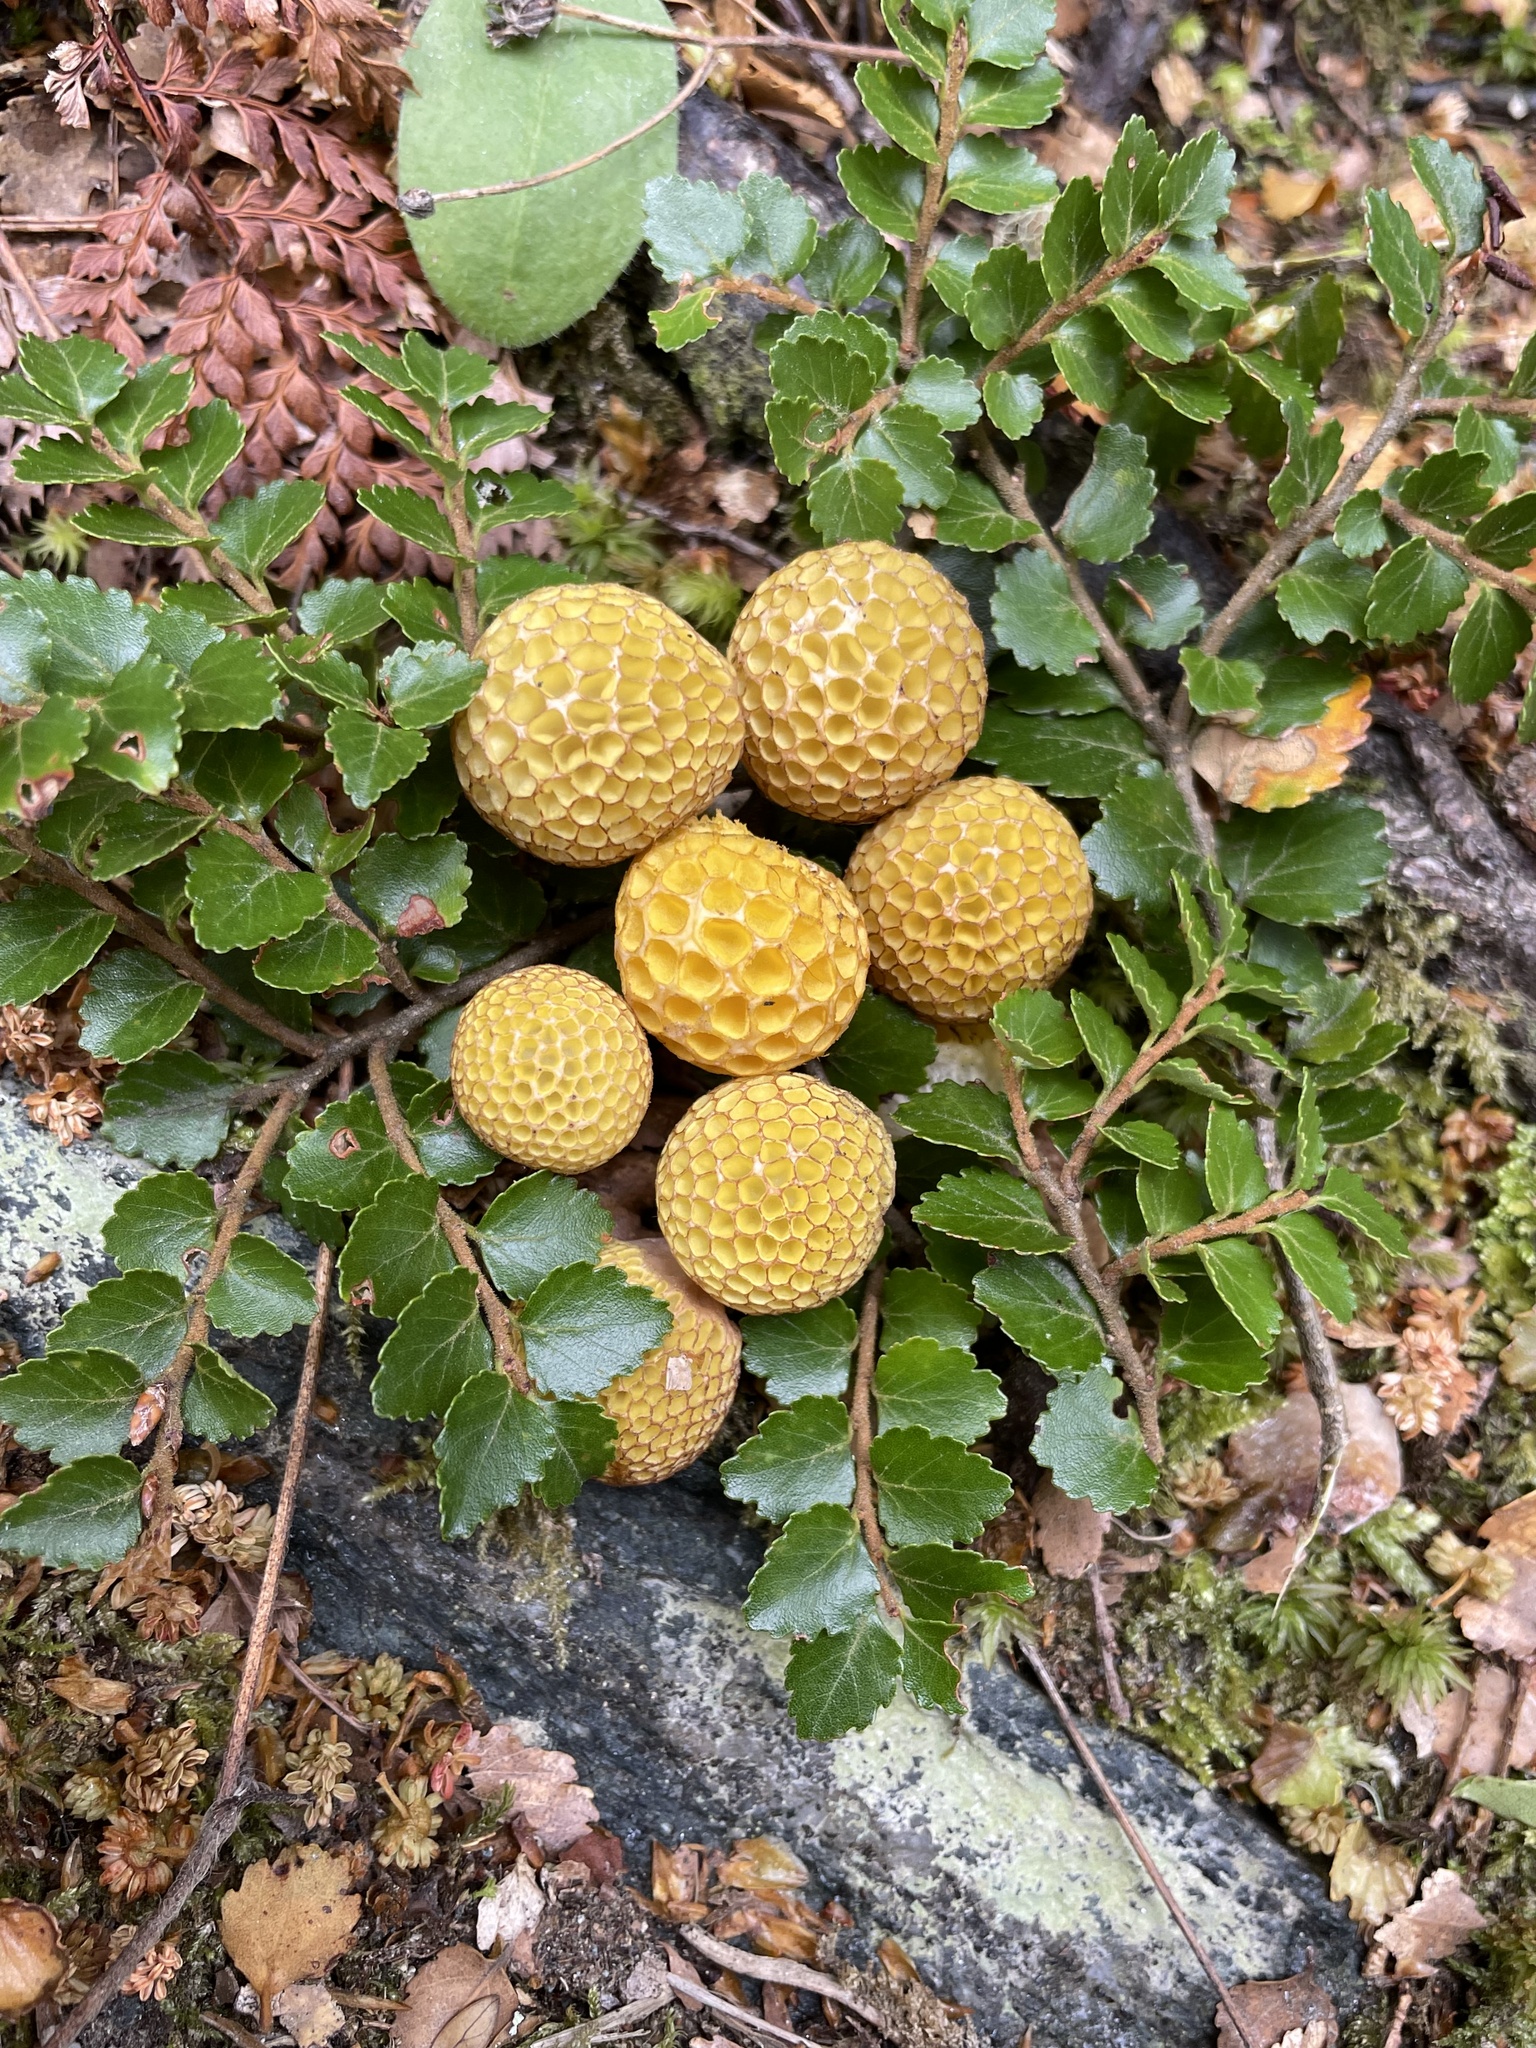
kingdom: Fungi
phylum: Ascomycota
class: Leotiomycetes
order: Cyttariales
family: Cyttariaceae
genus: Cyttaria
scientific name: Cyttaria gunnii
